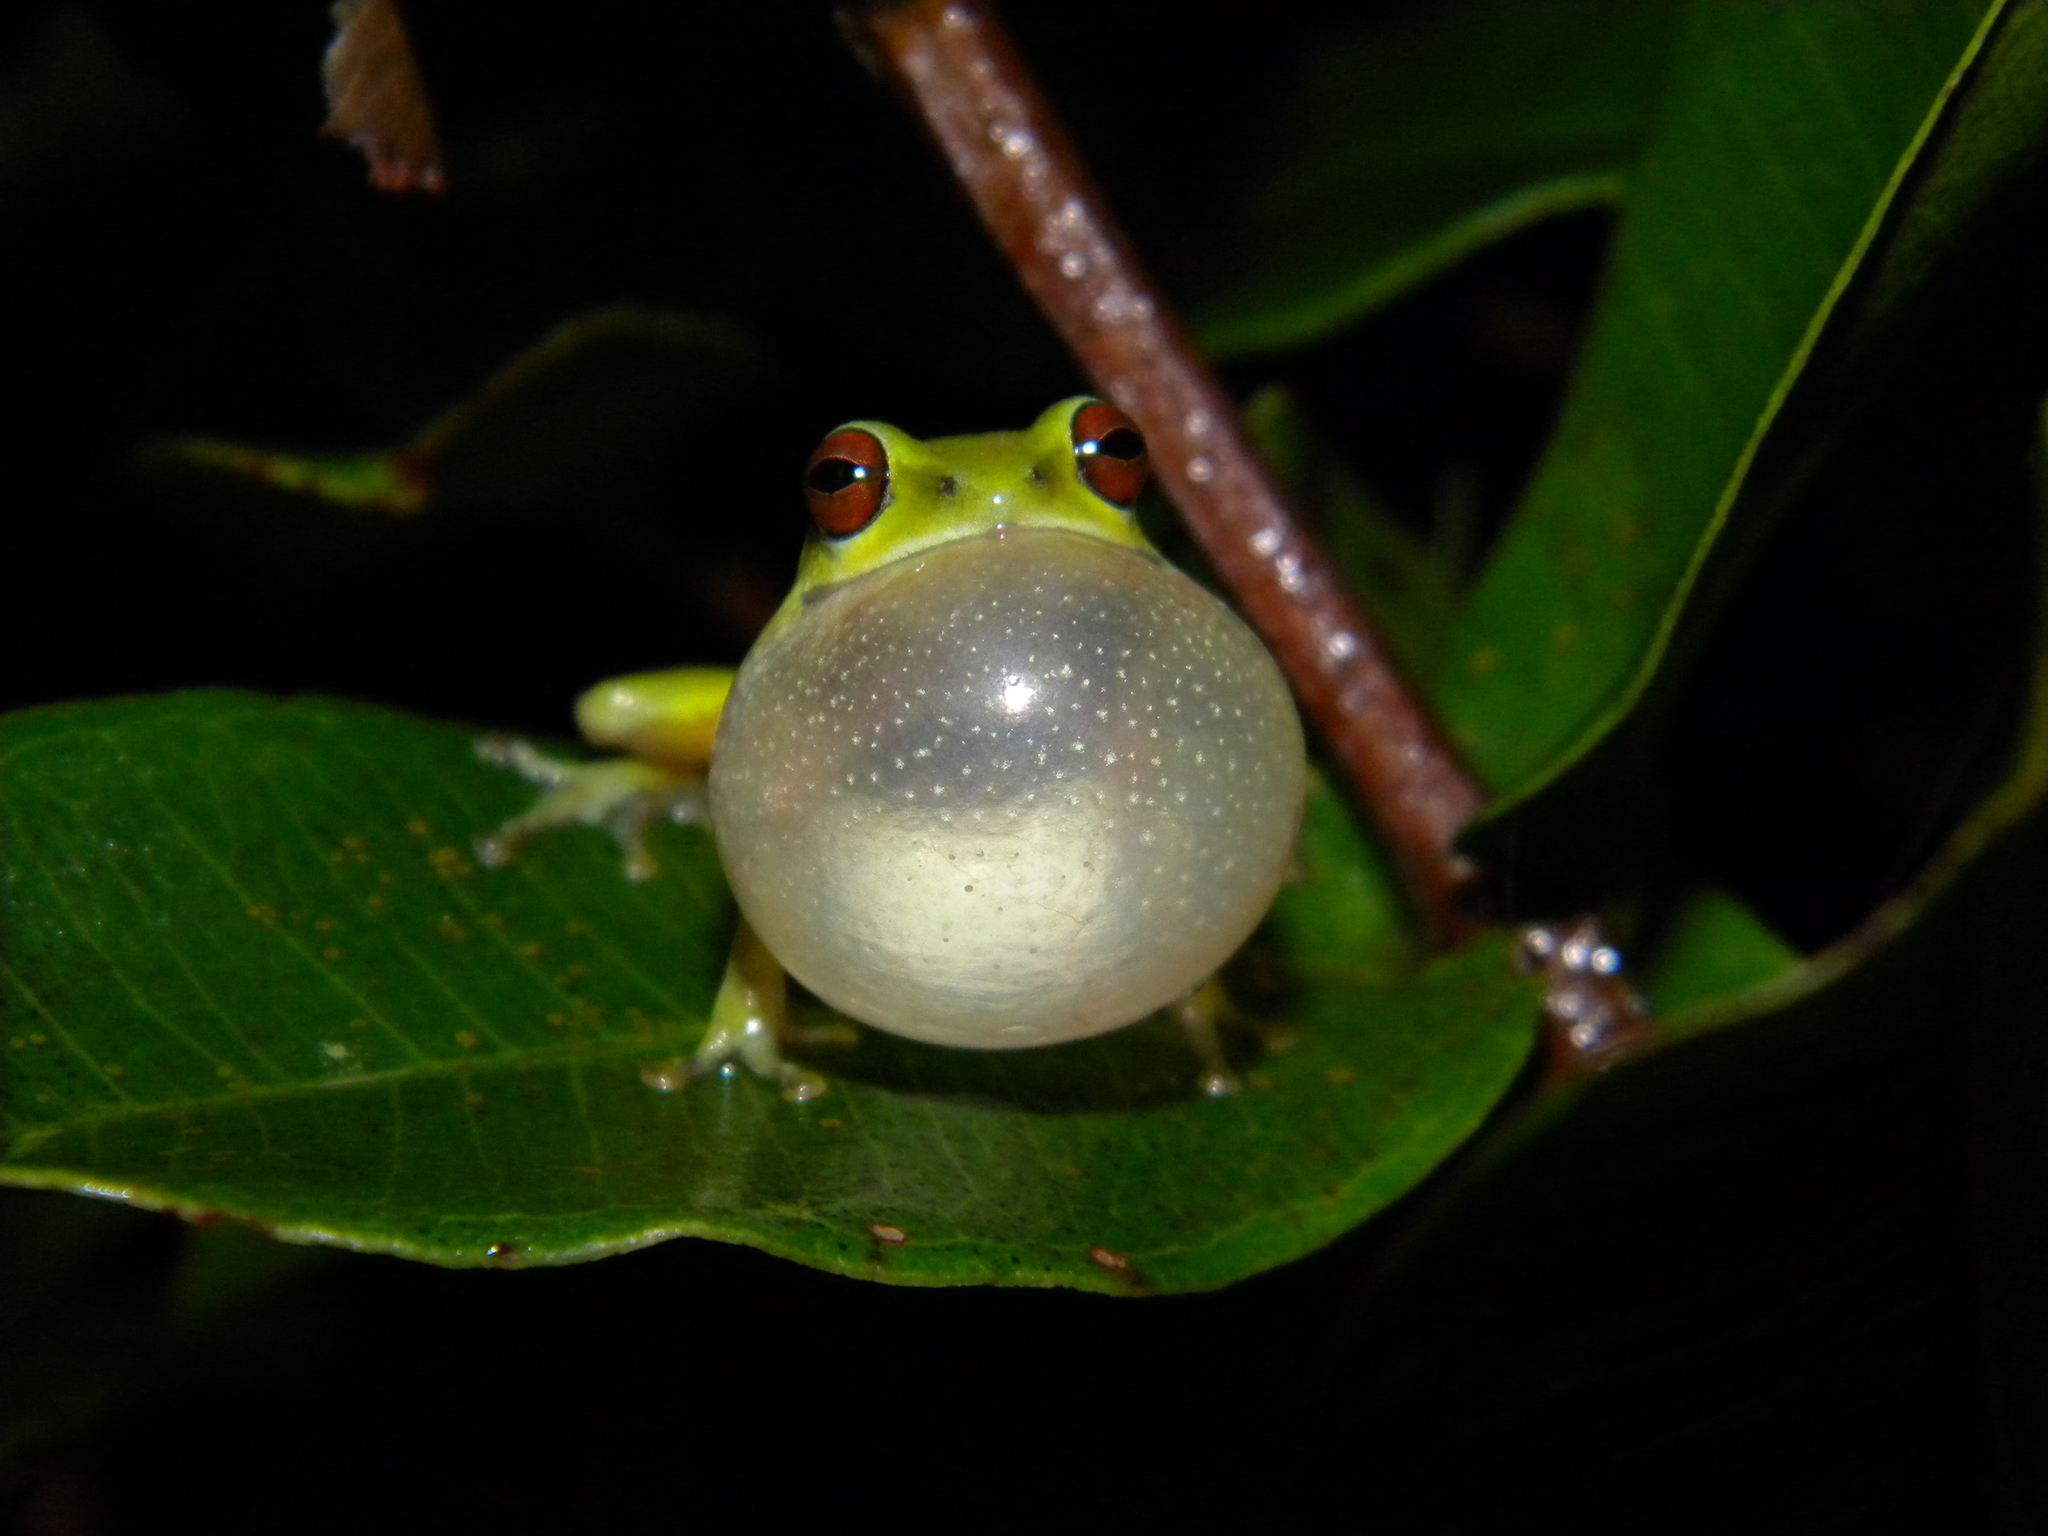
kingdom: Animalia
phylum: Chordata
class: Amphibia
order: Anura
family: Rhacophoridae
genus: Raorchestes
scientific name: Raorchestes beddomii
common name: Beddome's bush frog
